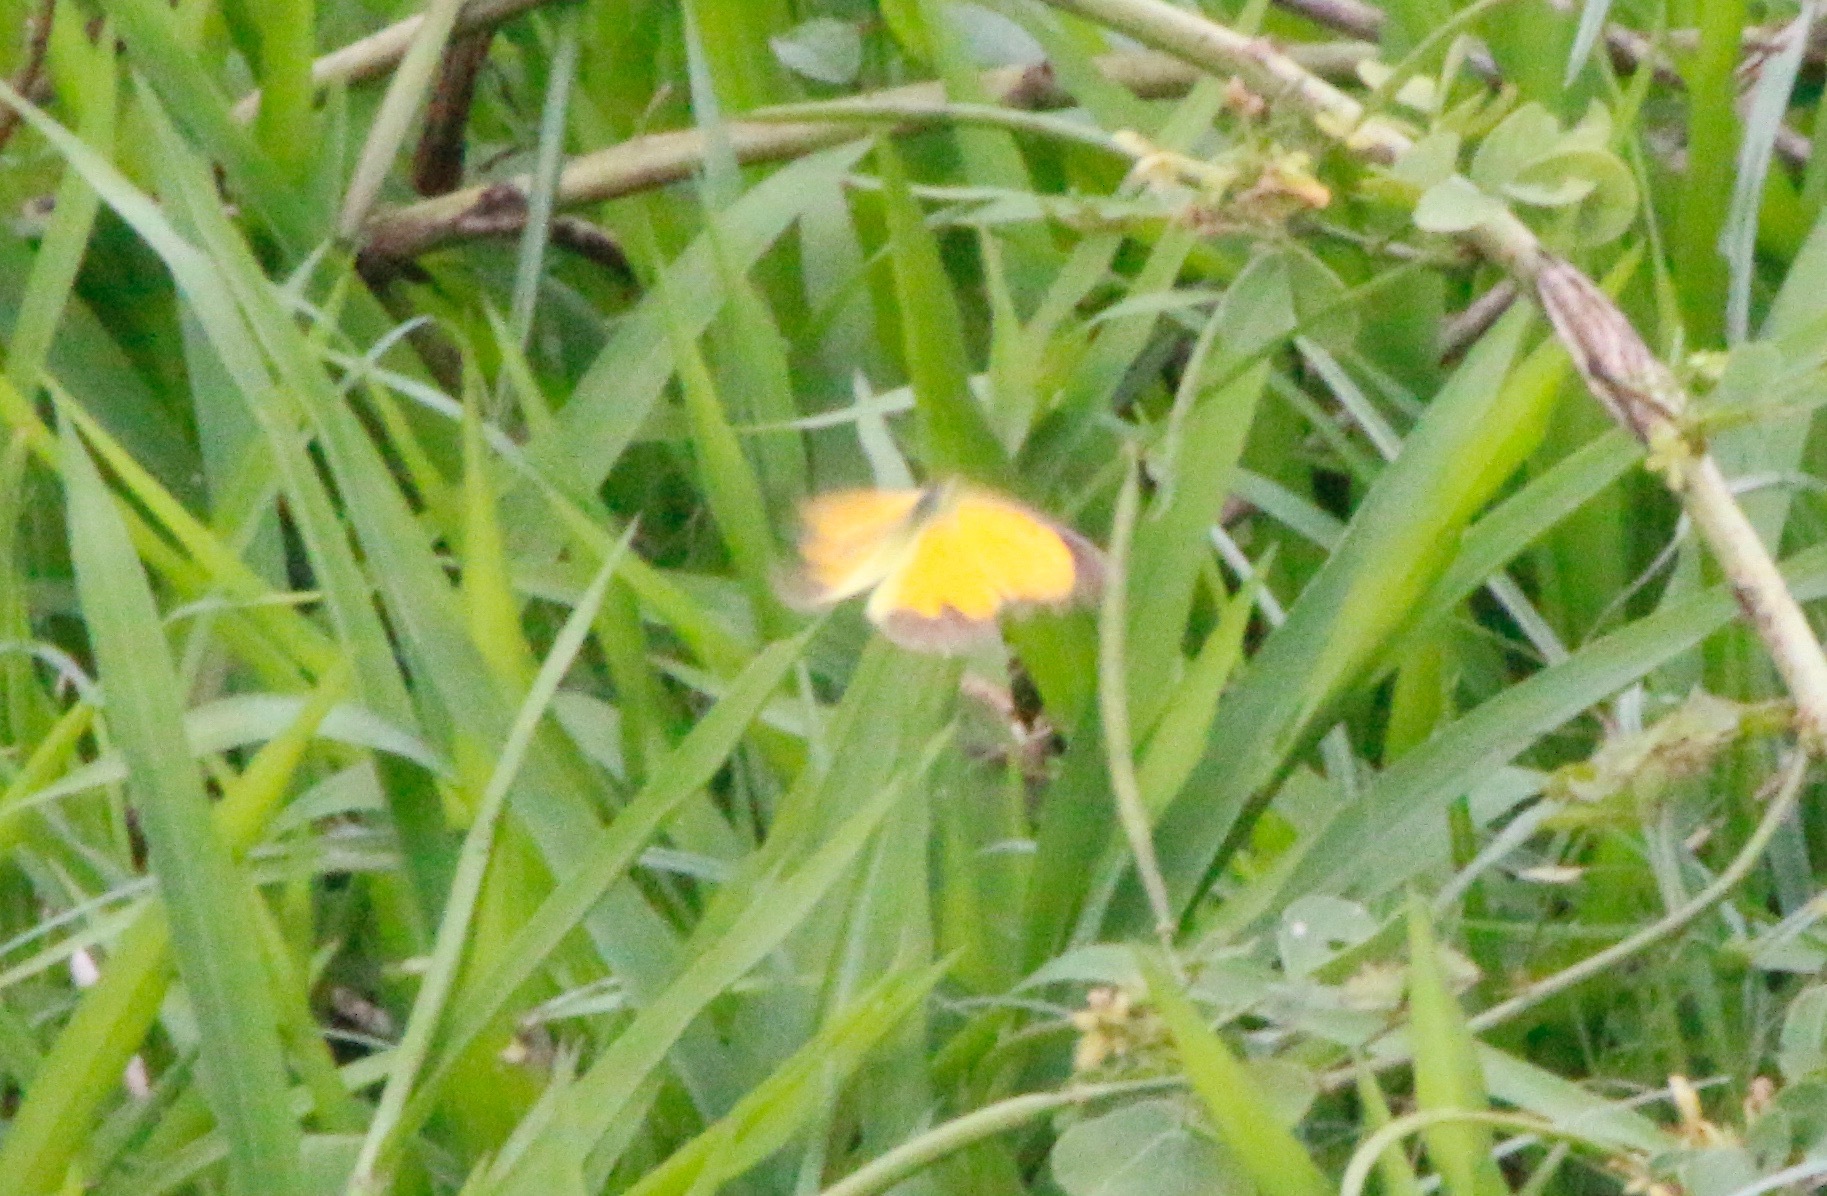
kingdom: Animalia
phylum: Arthropoda
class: Insecta
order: Lepidoptera
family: Pieridae
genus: Abaeis
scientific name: Abaeis nicippe
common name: Sleepy orange
